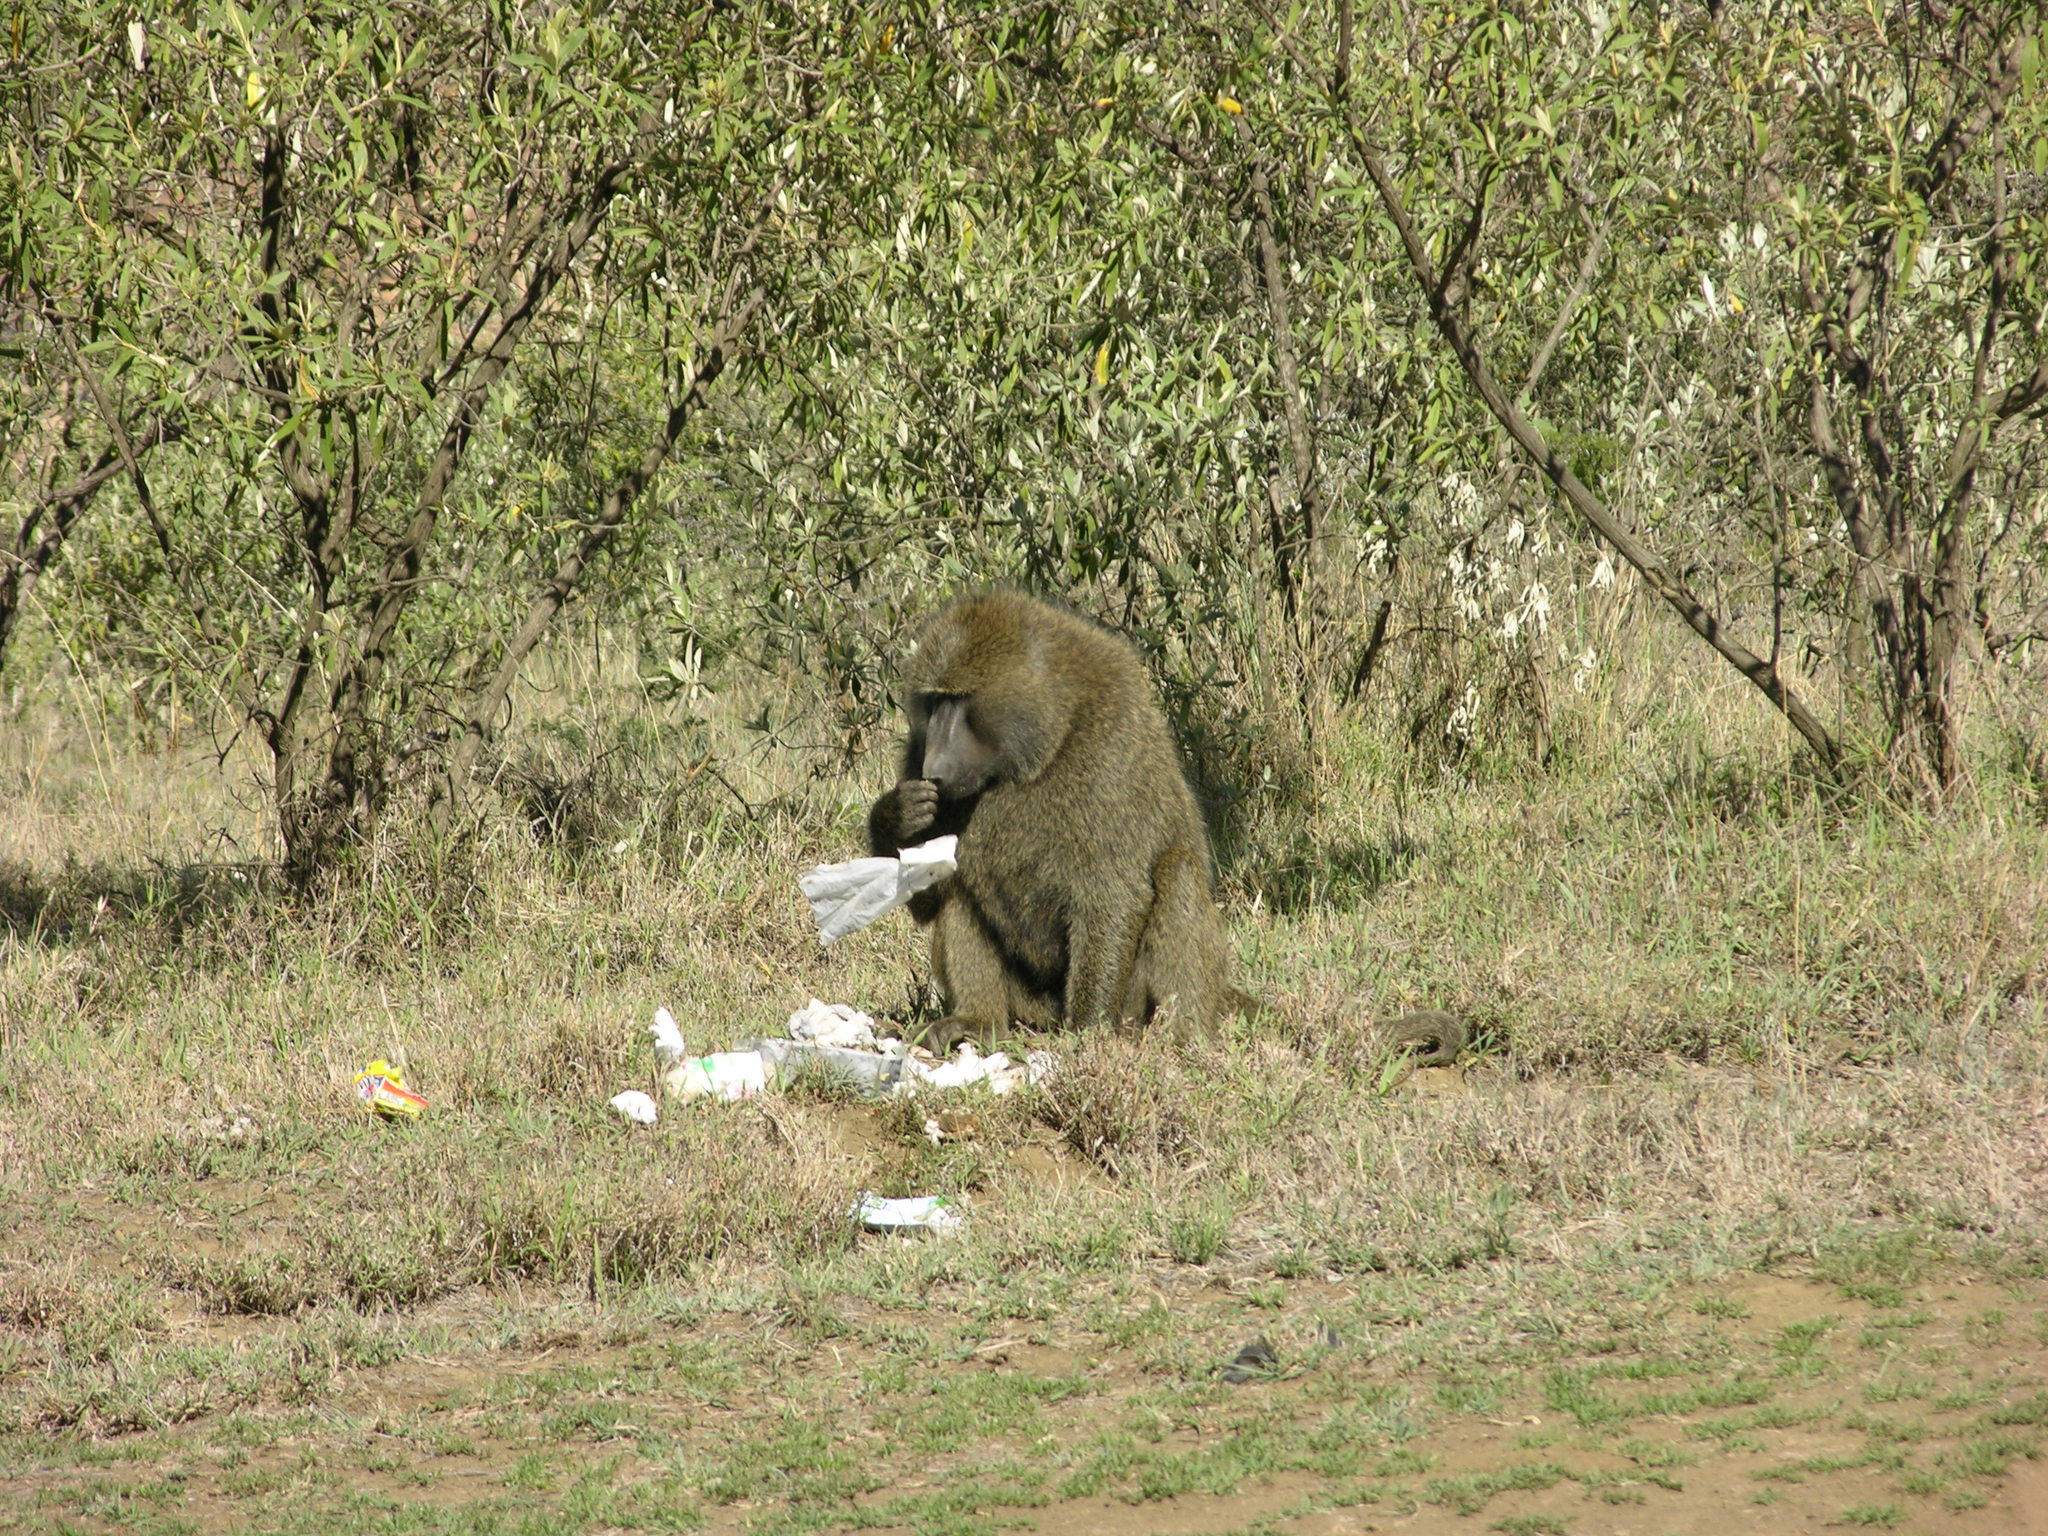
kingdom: Animalia
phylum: Chordata
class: Mammalia
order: Primates
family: Cercopithecidae
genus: Papio
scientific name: Papio anubis
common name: Olive baboon
